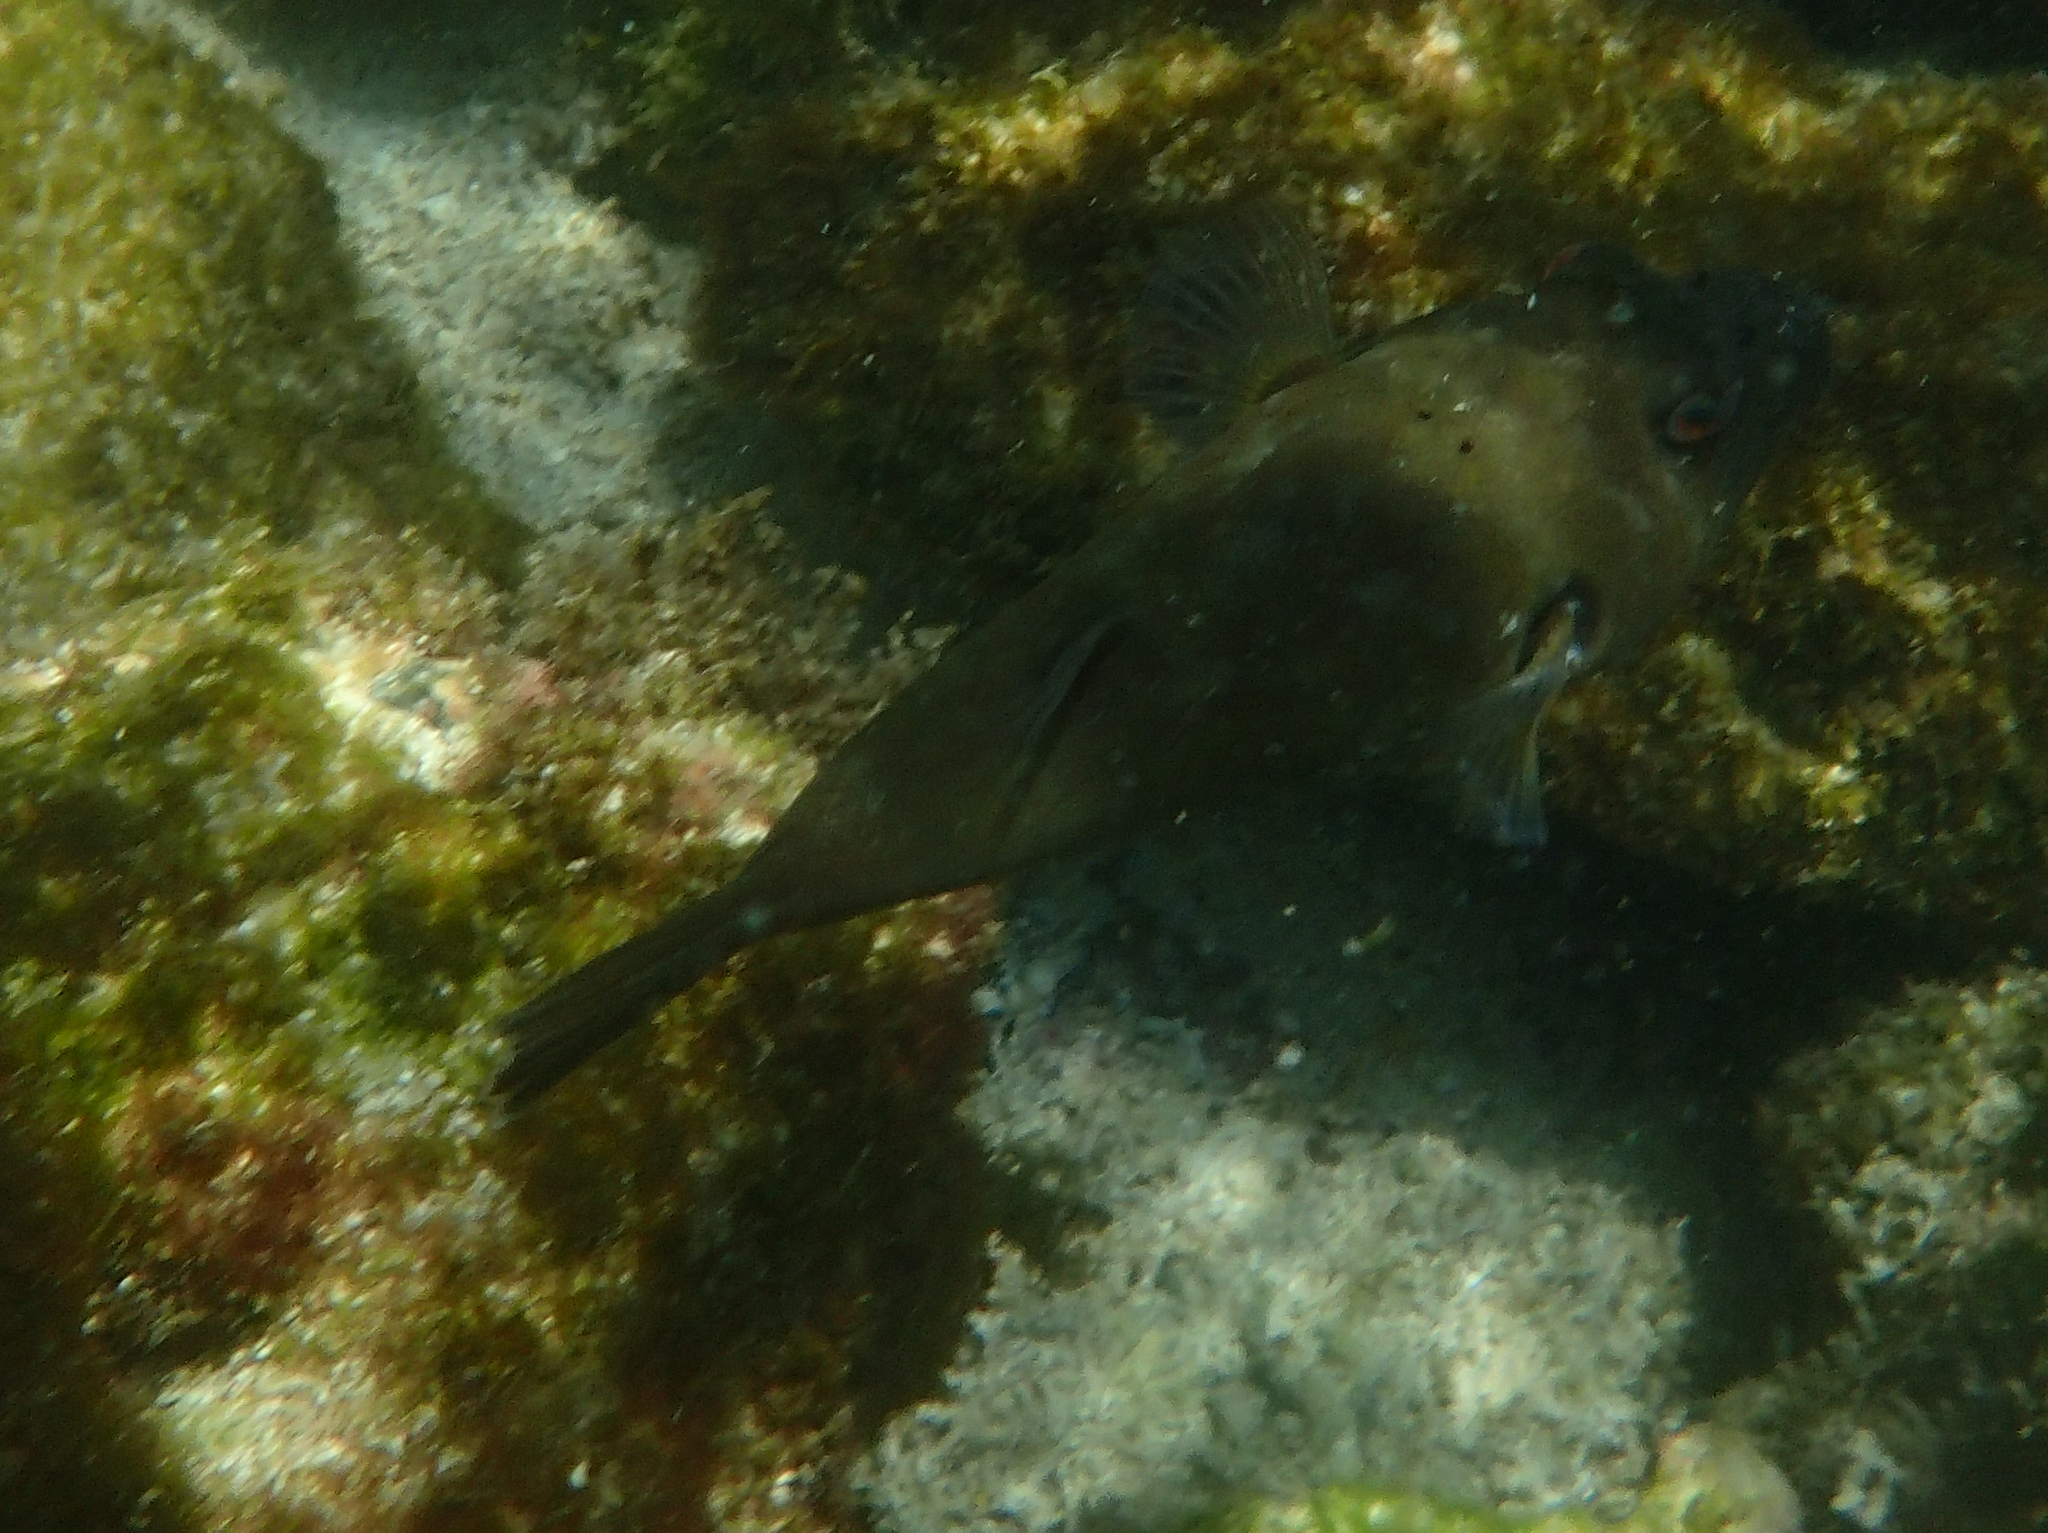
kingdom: Animalia
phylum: Chordata
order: Tetraodontiformes
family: Tetraodontidae
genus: Sphoeroides
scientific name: Sphoeroides angusticeps
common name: Narrow-headed puffer
